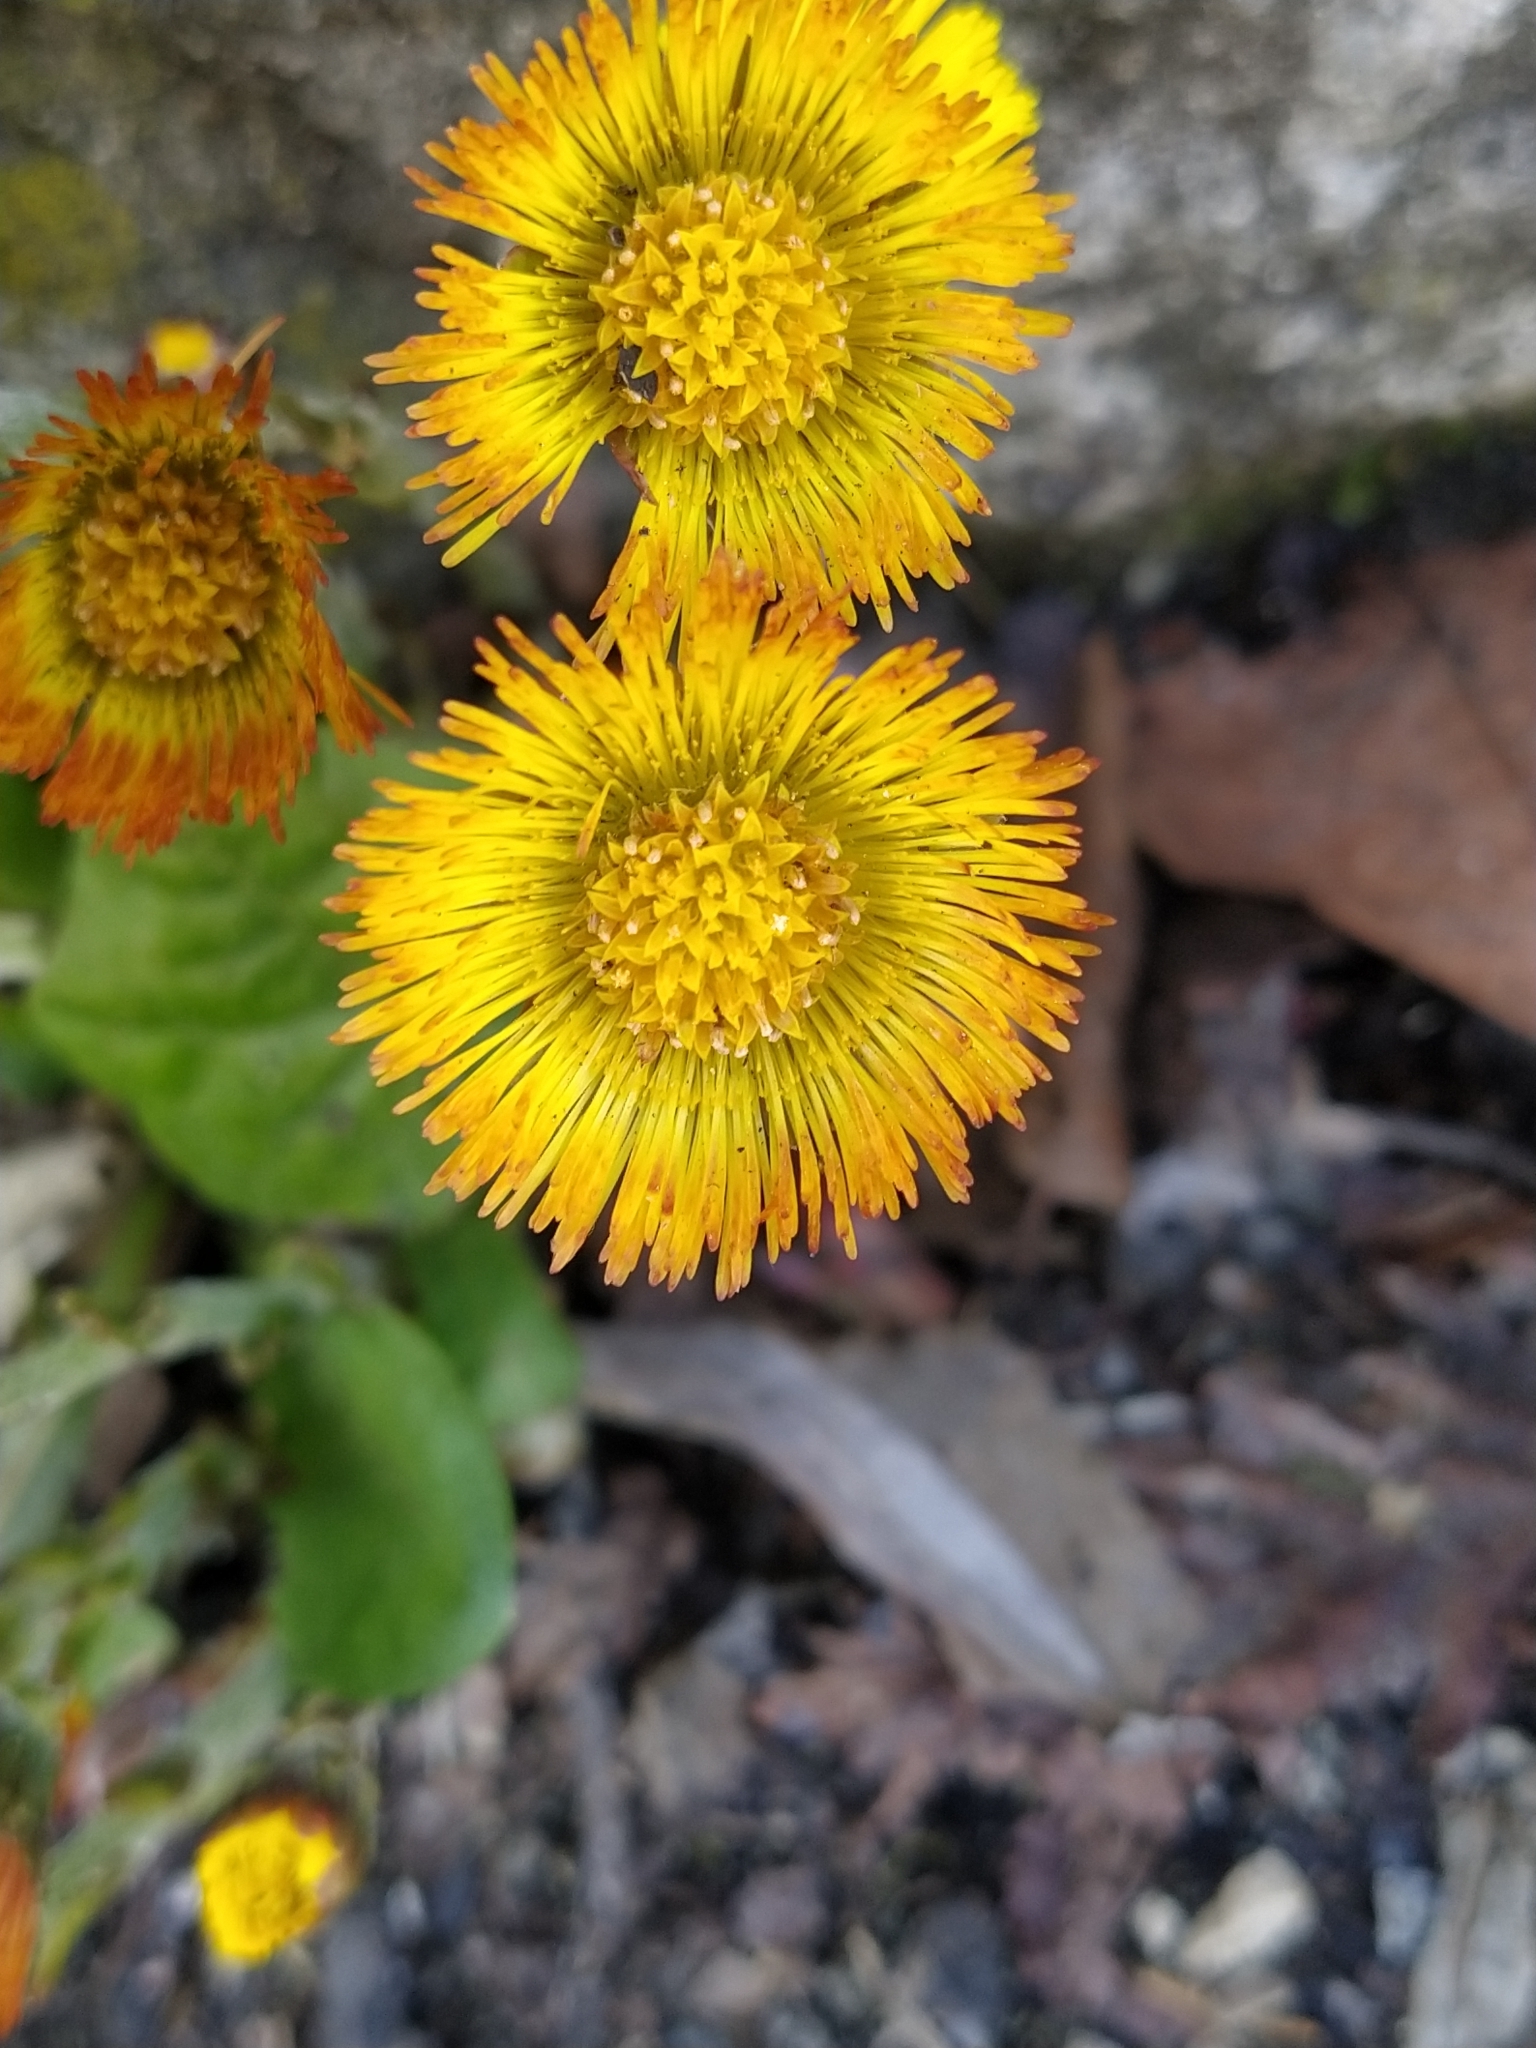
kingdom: Plantae
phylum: Tracheophyta
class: Magnoliopsida
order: Asterales
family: Asteraceae
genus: Tussilago
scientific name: Tussilago farfara
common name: Coltsfoot
